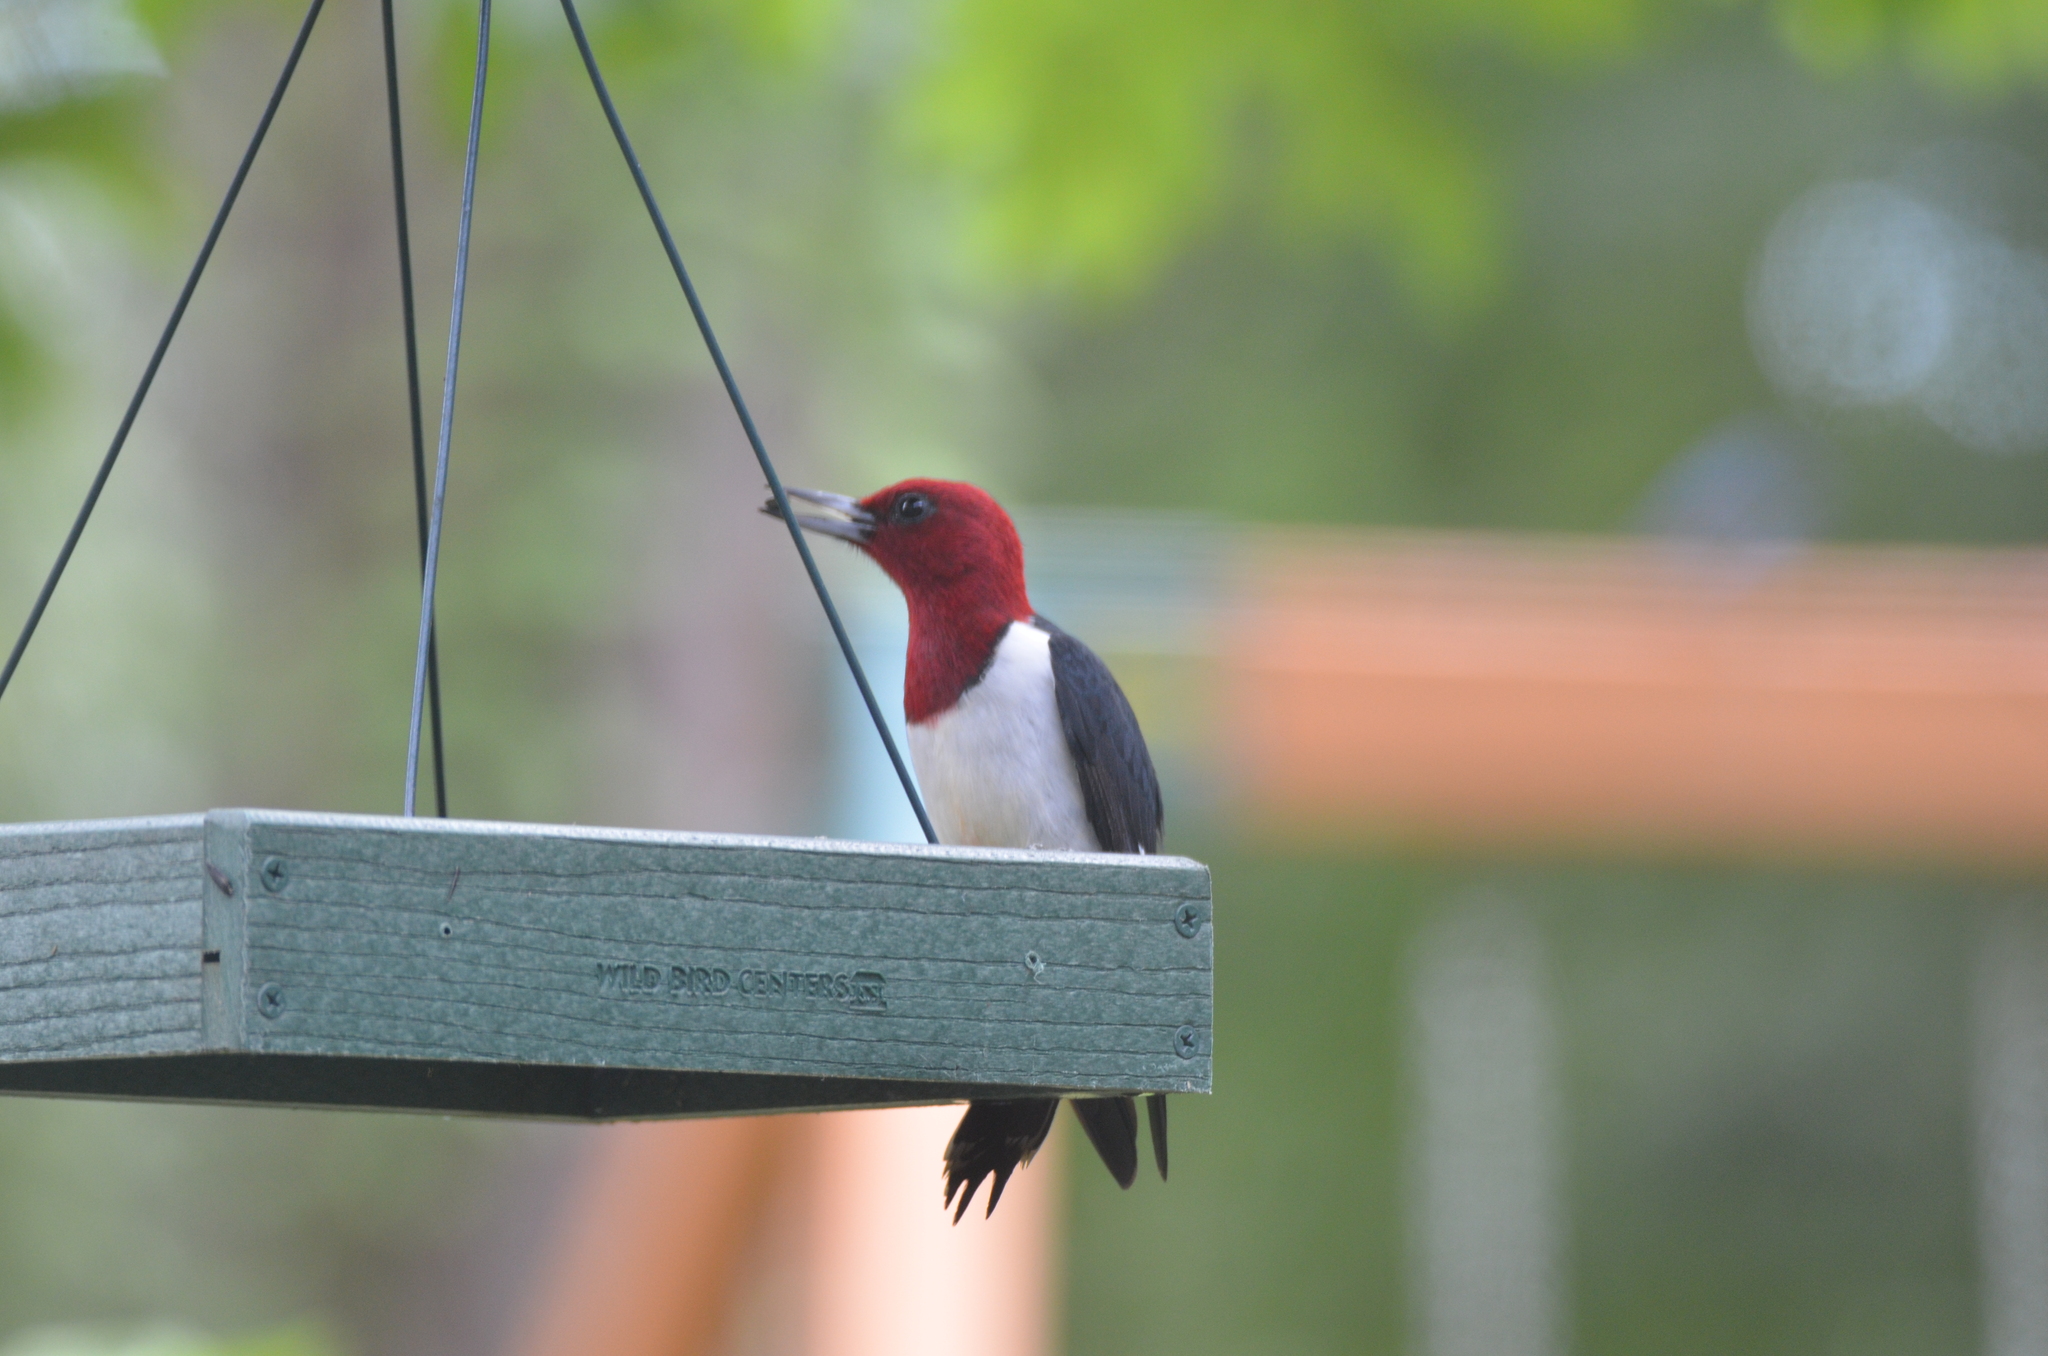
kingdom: Animalia
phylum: Chordata
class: Aves
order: Piciformes
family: Picidae
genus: Melanerpes
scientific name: Melanerpes erythrocephalus
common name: Red-headed woodpecker
